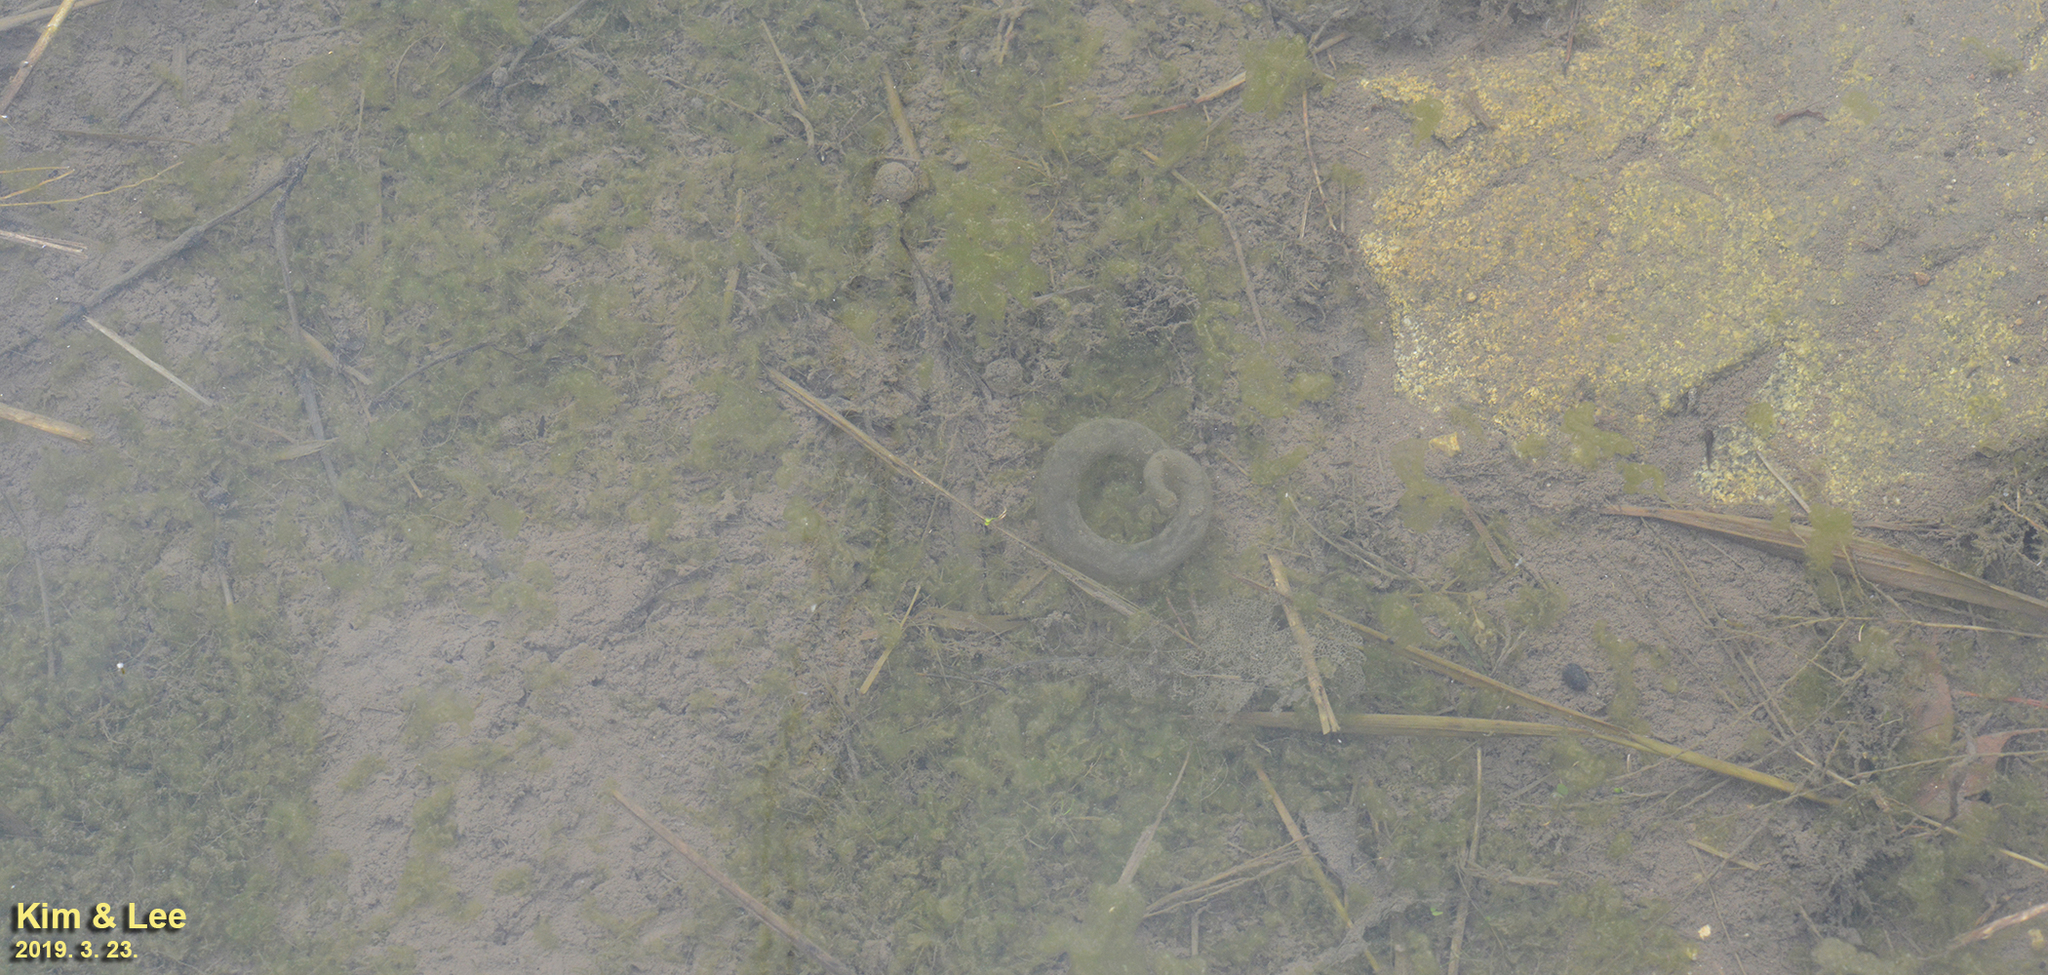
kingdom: Animalia
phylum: Chordata
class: Amphibia
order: Caudata
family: Hynobiidae
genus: Hynobius
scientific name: Hynobius leechii
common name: Gensan salamander
